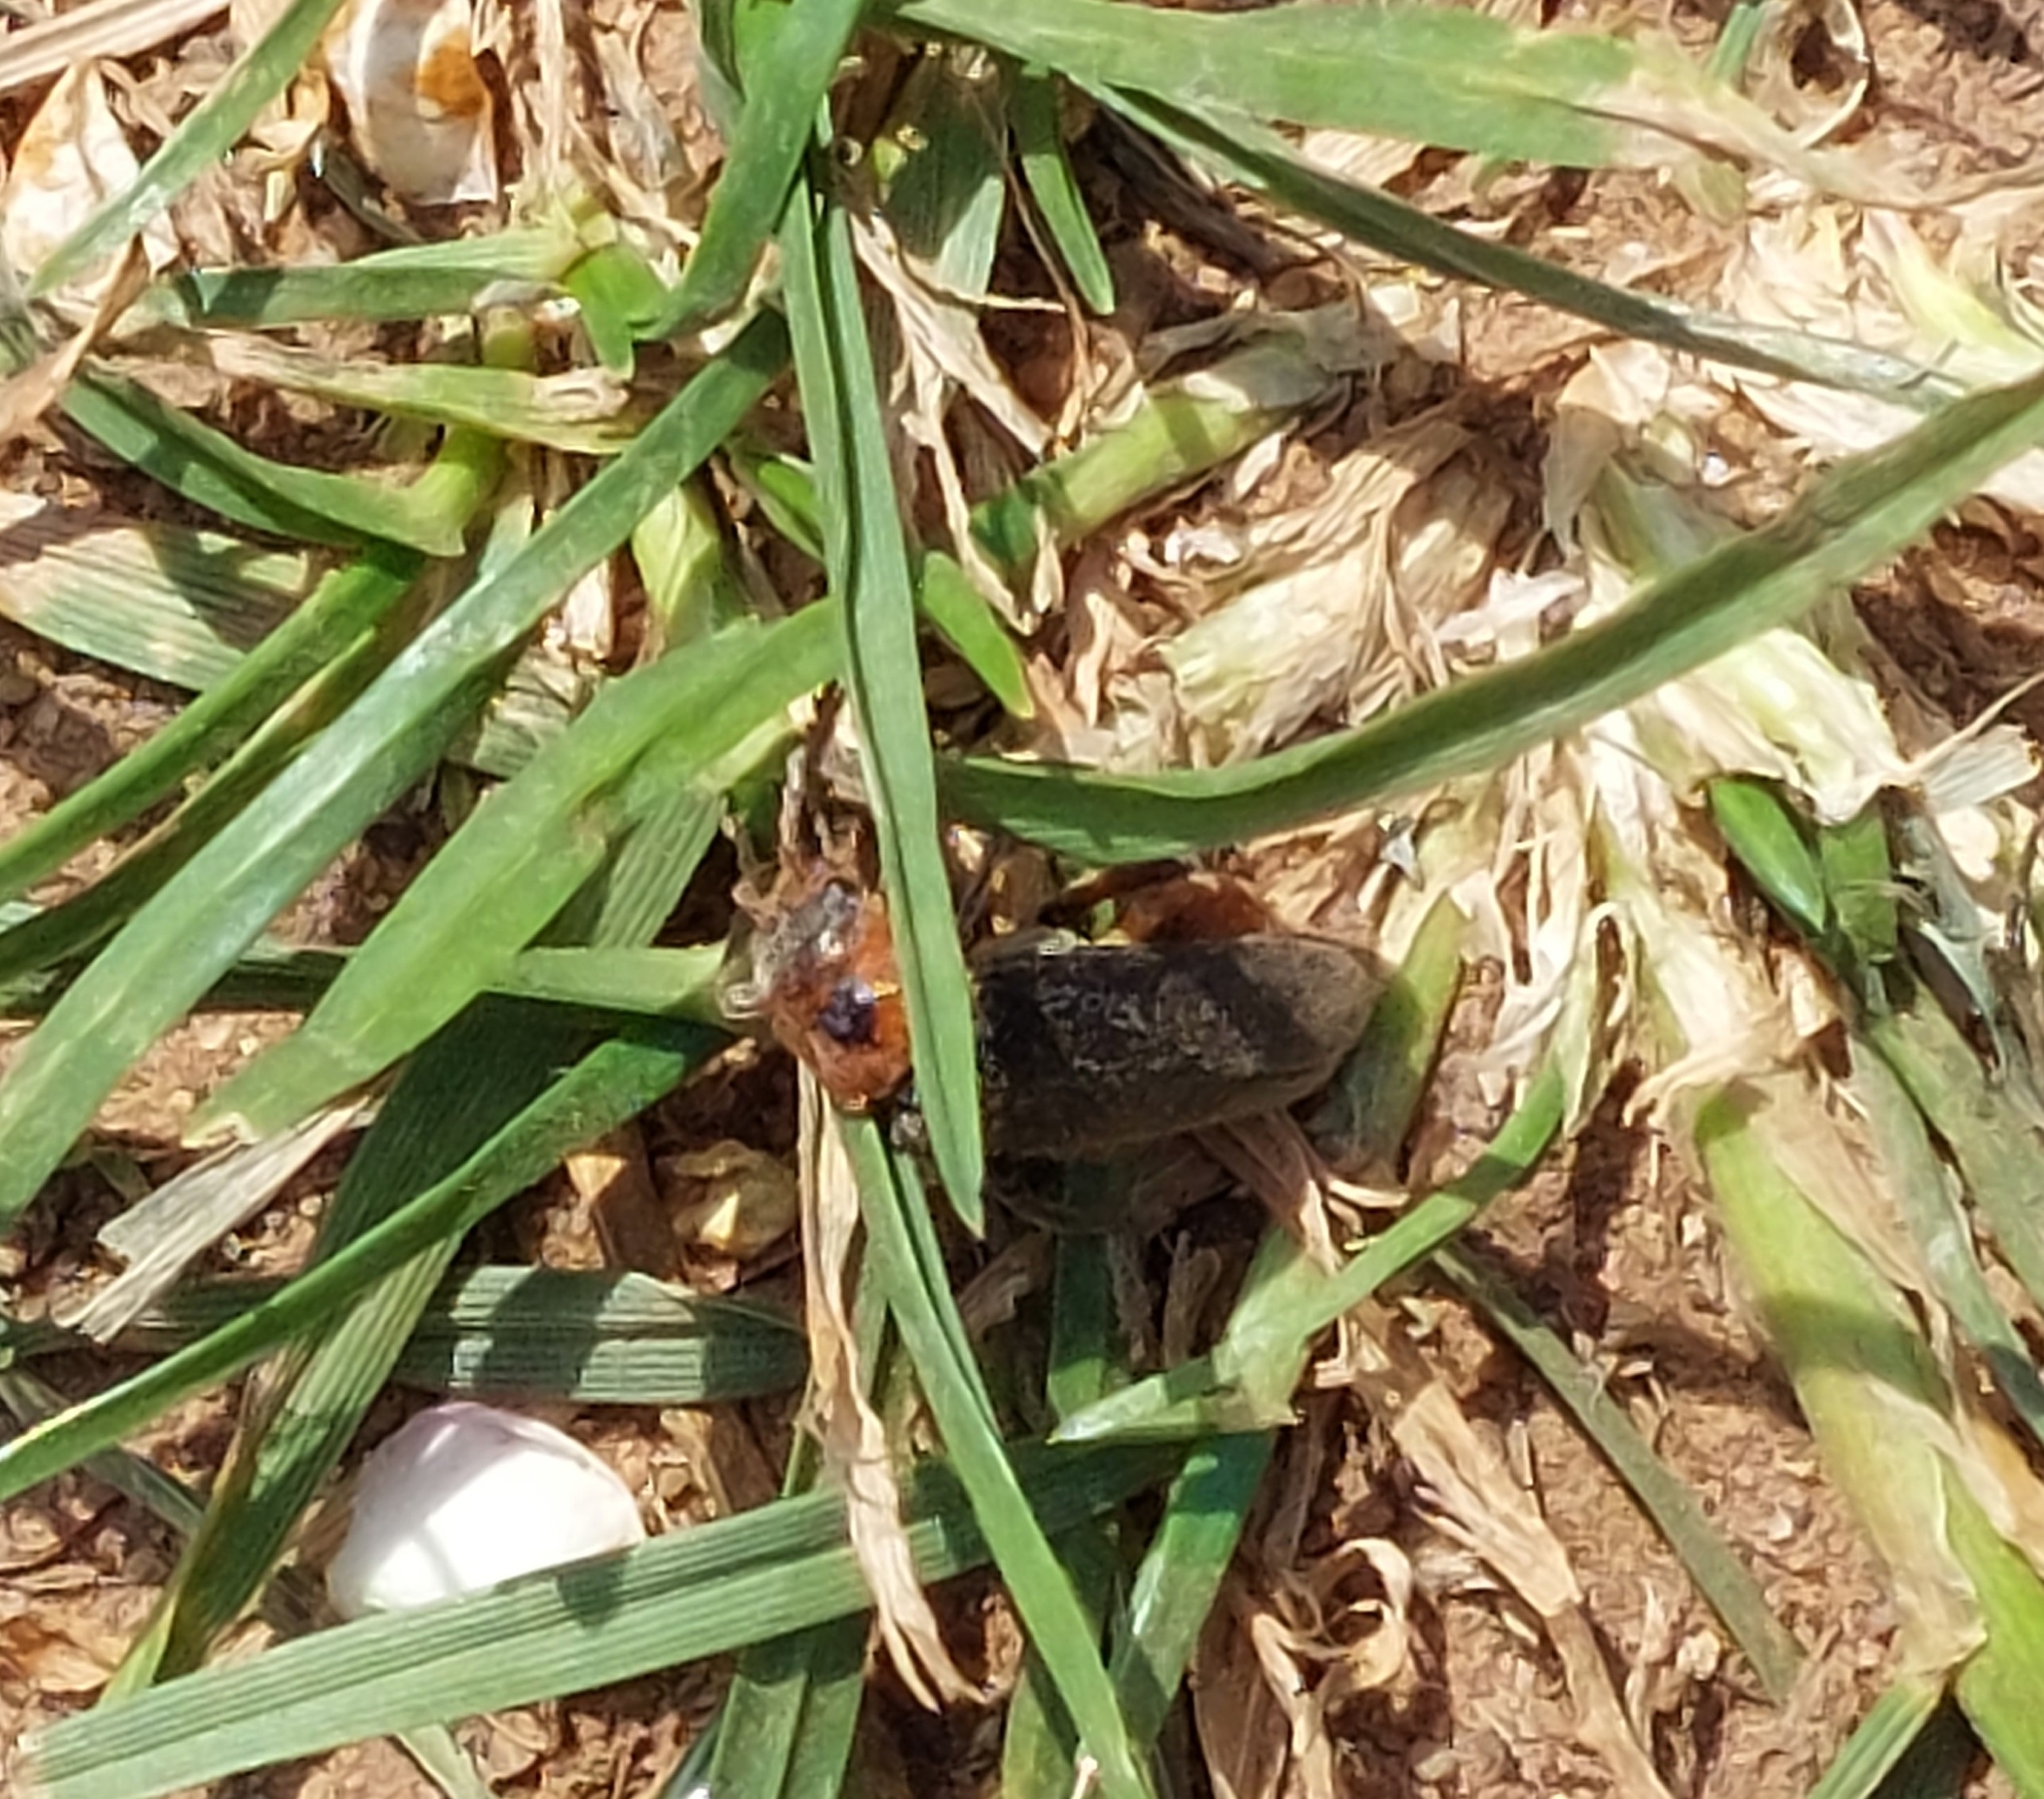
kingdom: Animalia
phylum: Arthropoda
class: Insecta
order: Coleoptera
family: Cantharidae
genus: Cantharis
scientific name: Cantharis rustica
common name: Soldier beetle
